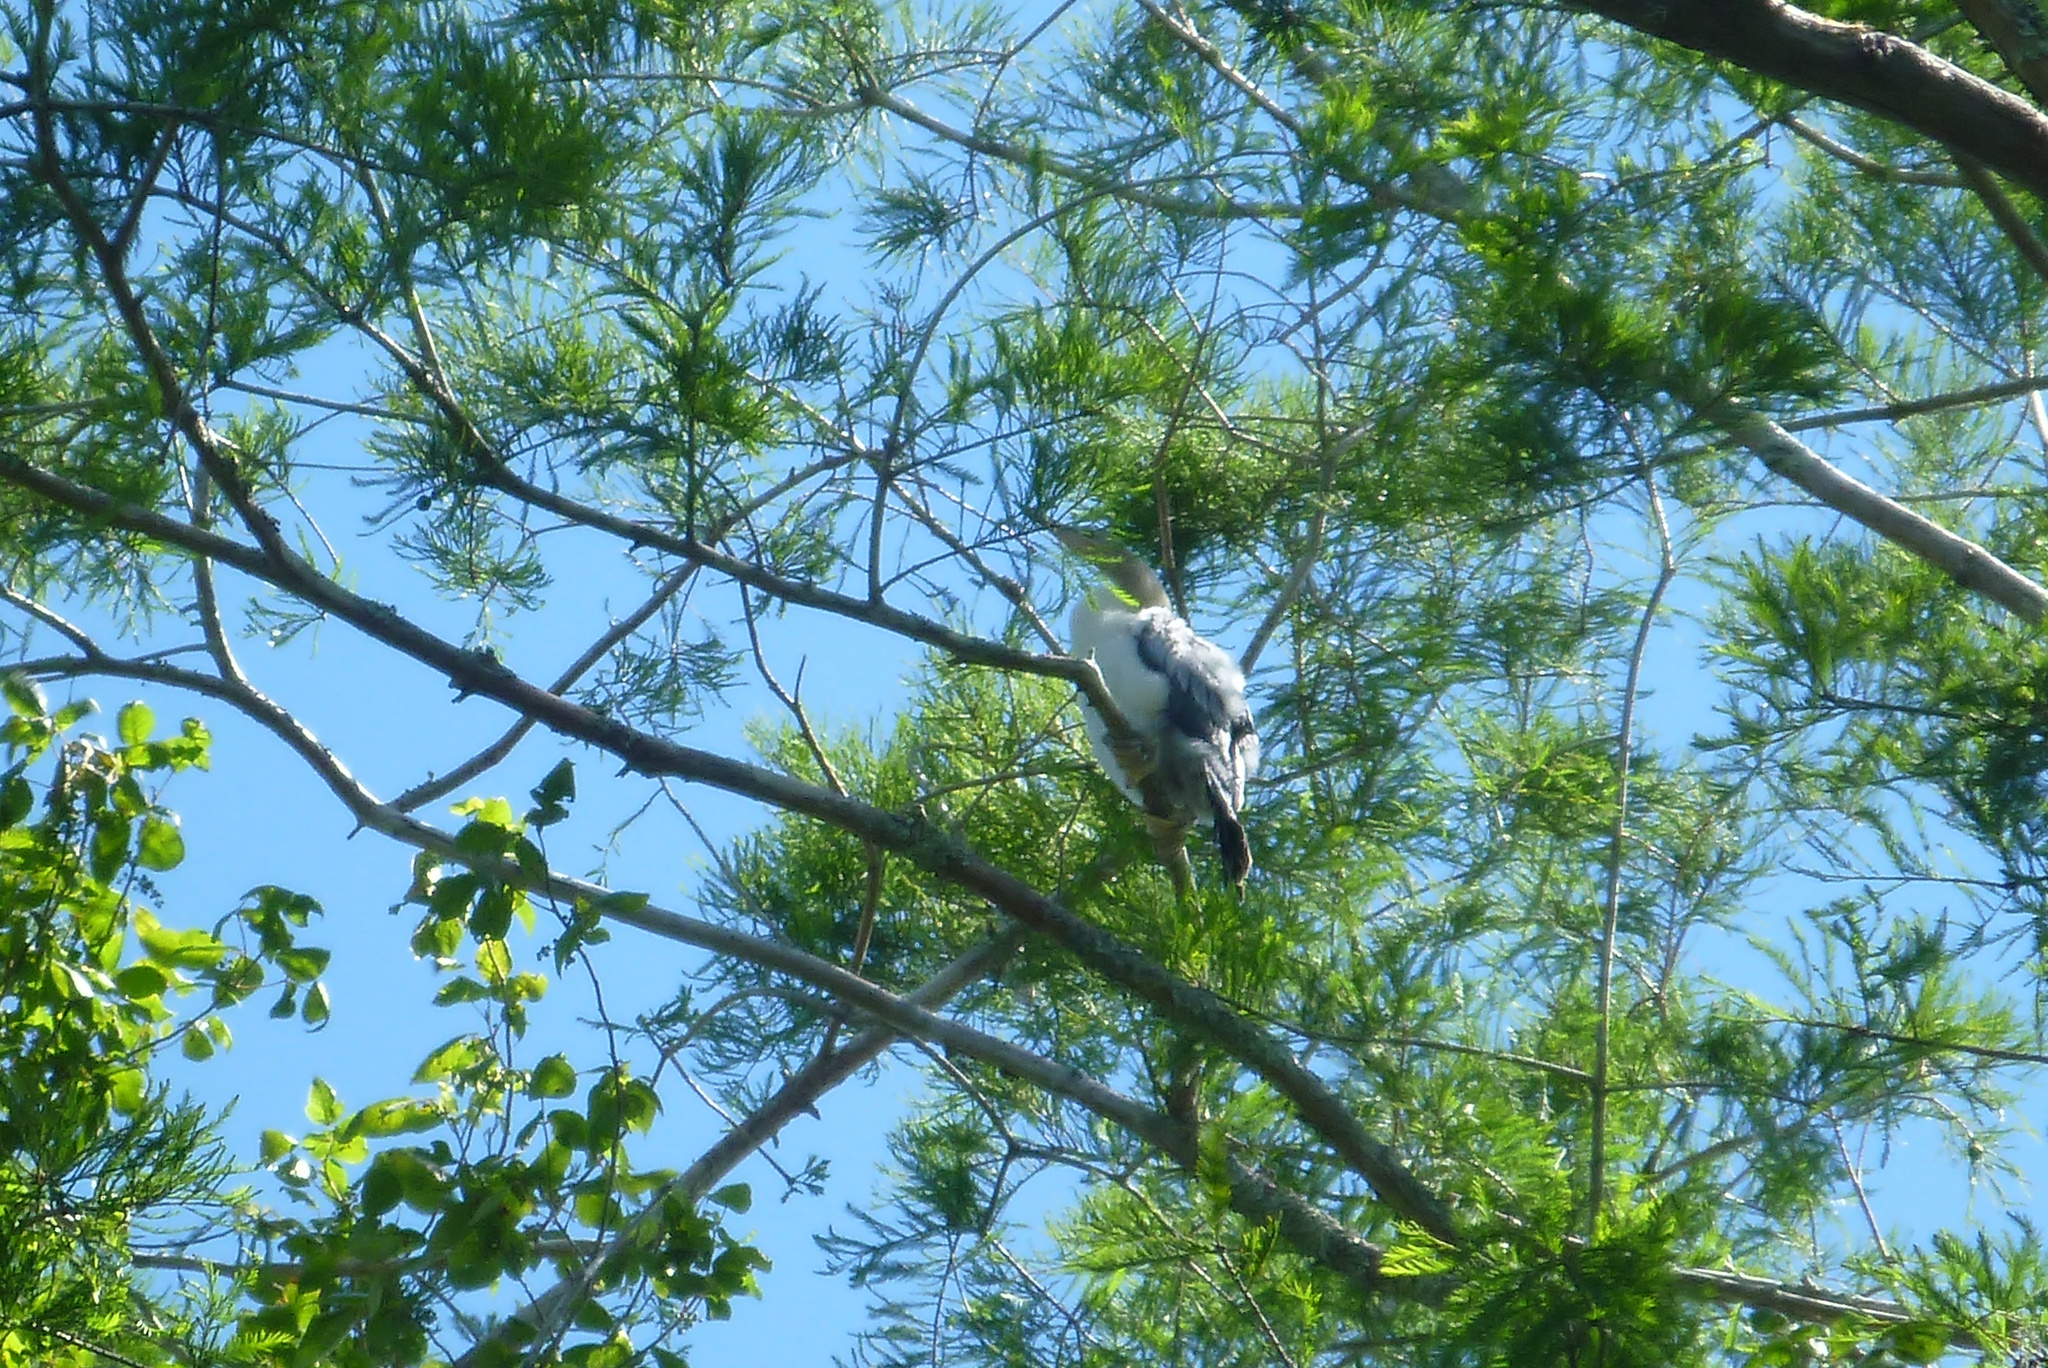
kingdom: Animalia
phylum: Chordata
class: Aves
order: Suliformes
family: Anhingidae
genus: Anhinga
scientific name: Anhinga anhinga
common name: Anhinga
